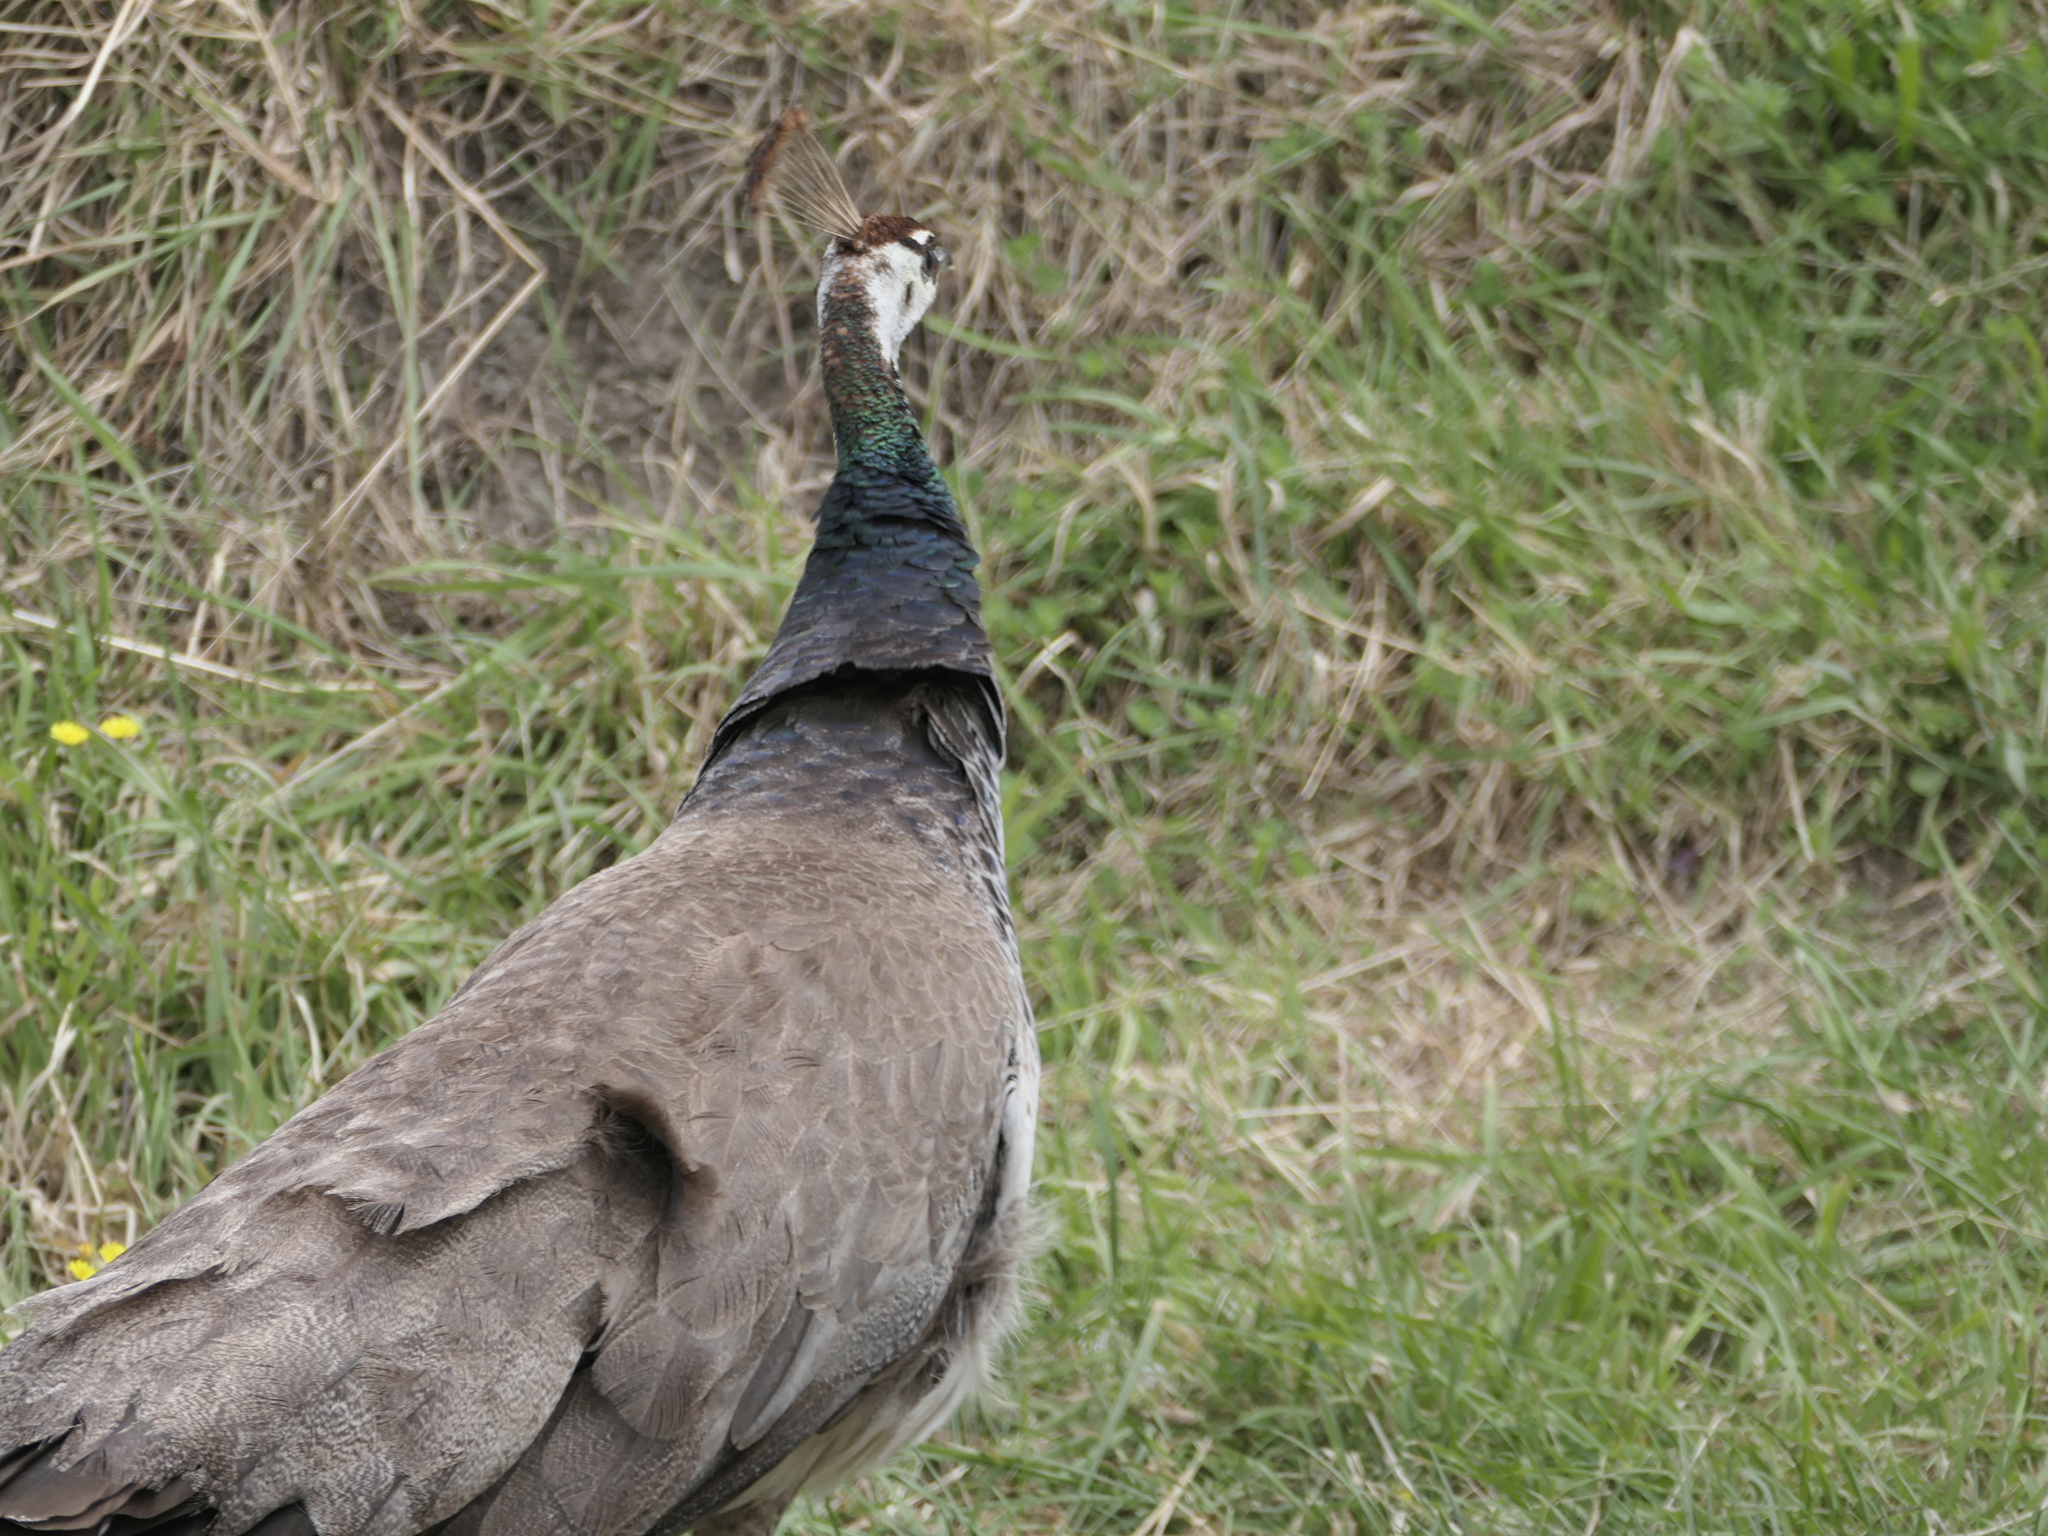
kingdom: Animalia
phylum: Chordata
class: Aves
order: Galliformes
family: Phasianidae
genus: Pavo
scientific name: Pavo cristatus
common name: Indian peafowl
